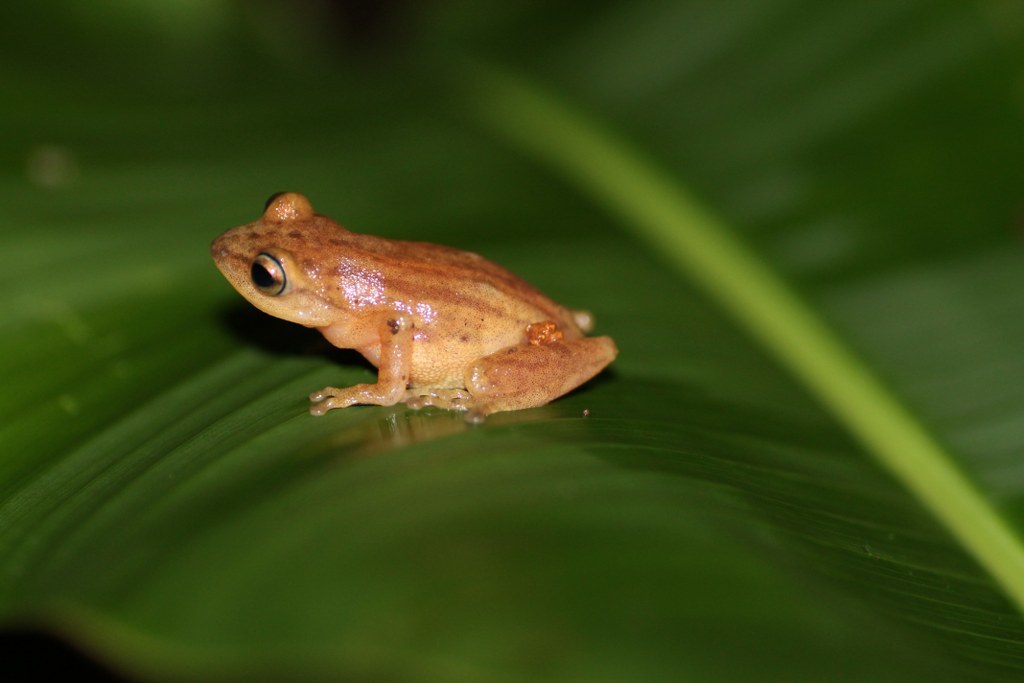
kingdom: Animalia
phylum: Chordata
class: Amphibia
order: Anura
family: Rhacophoridae
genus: Raorchestes
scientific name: Raorchestes luteolus
